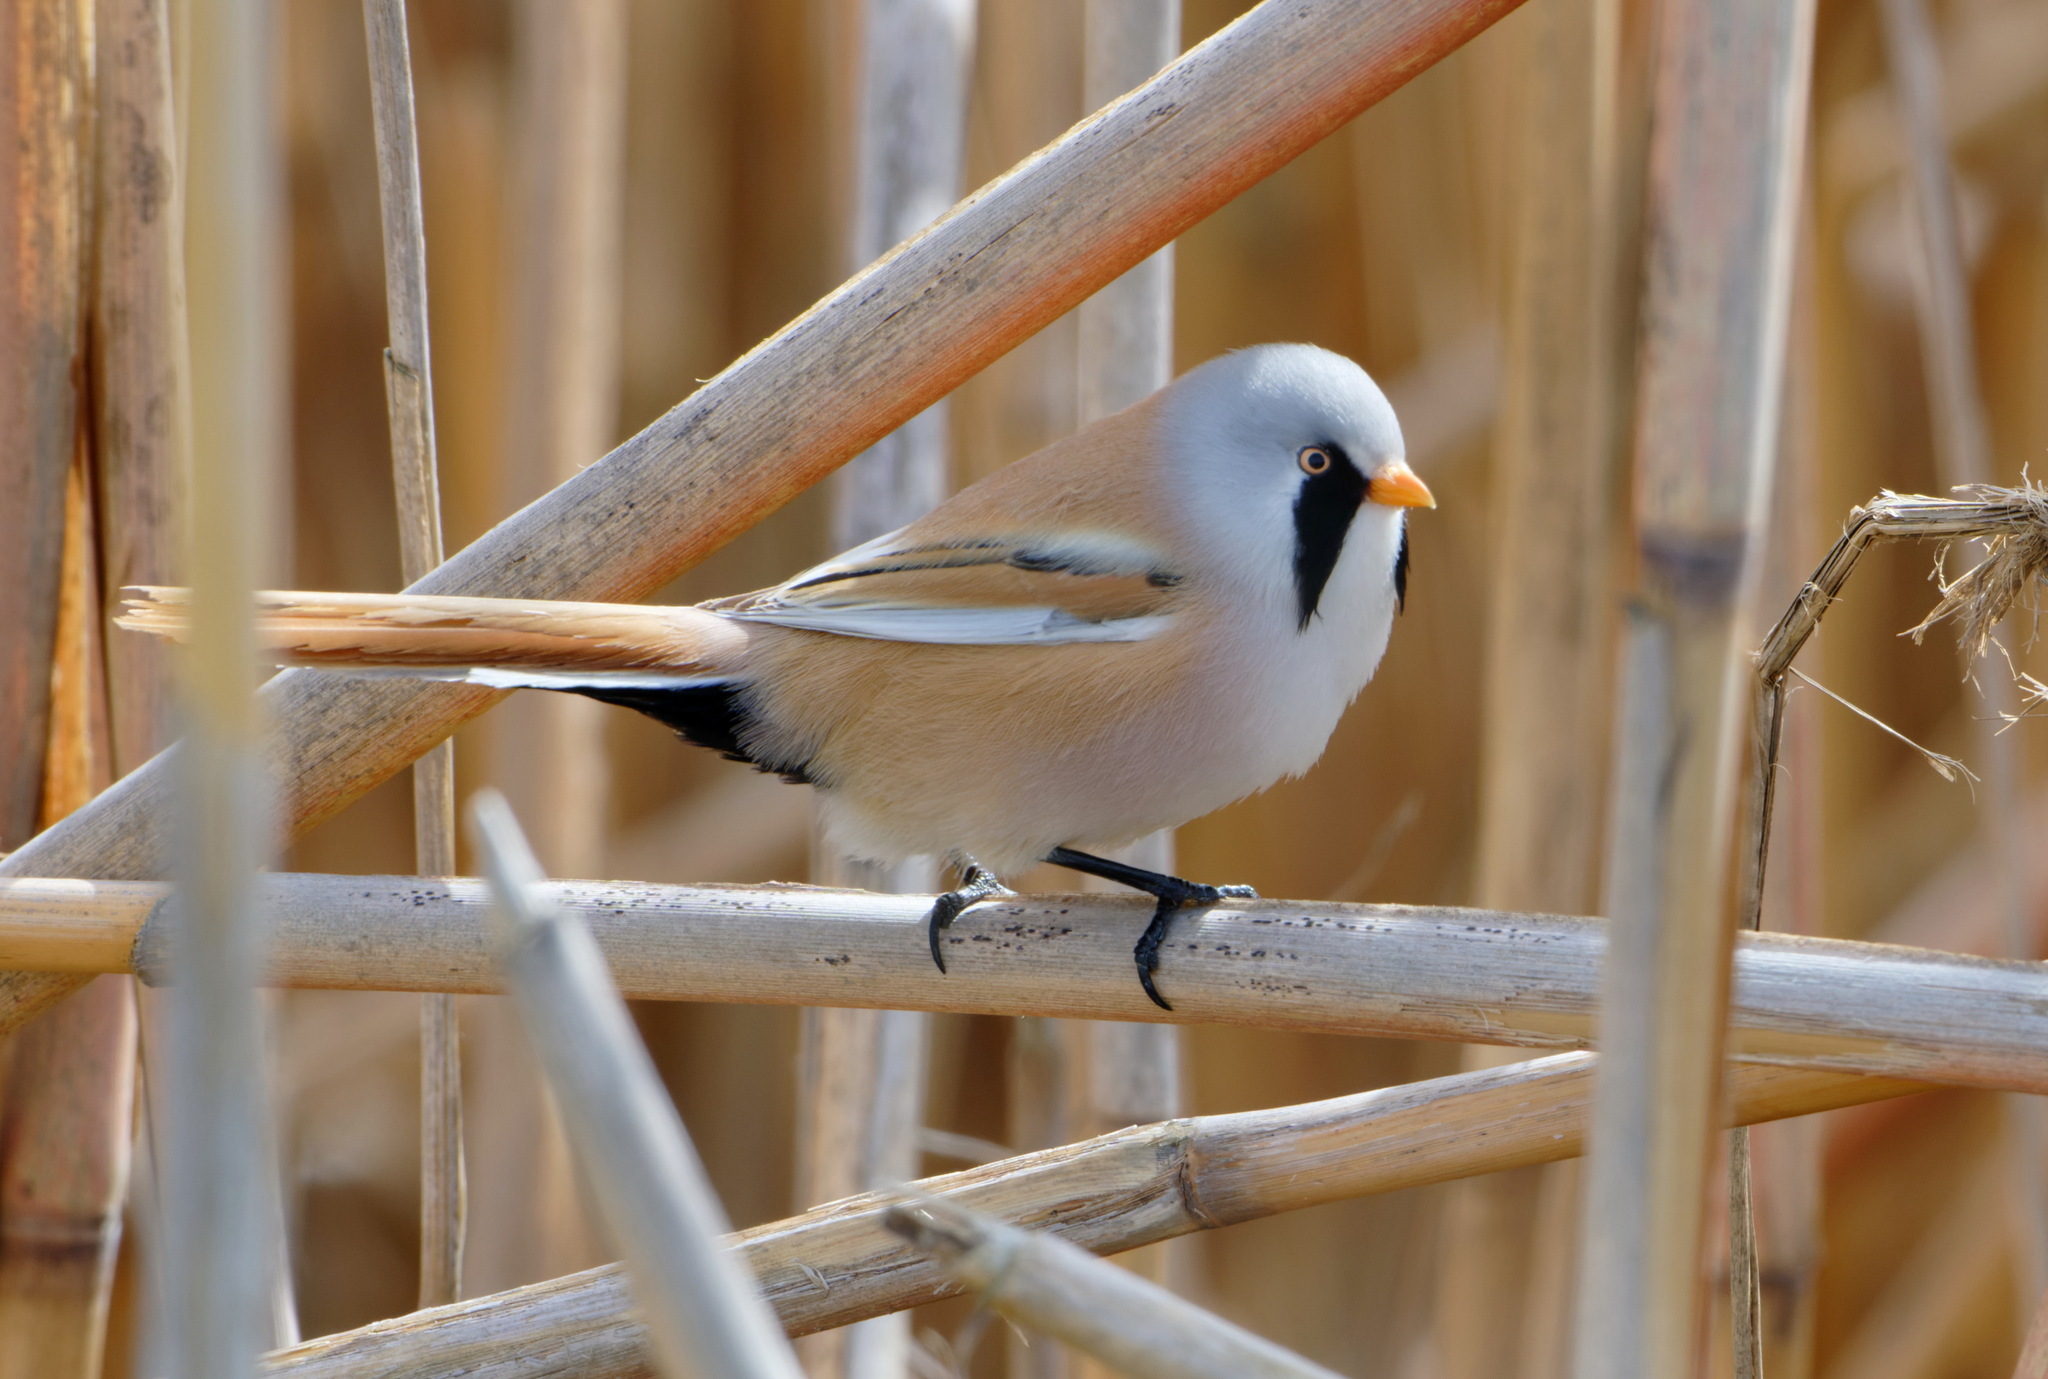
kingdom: Animalia
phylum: Chordata
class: Aves
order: Passeriformes
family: Panuridae
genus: Panurus
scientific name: Panurus biarmicus
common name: Bearded reedling
